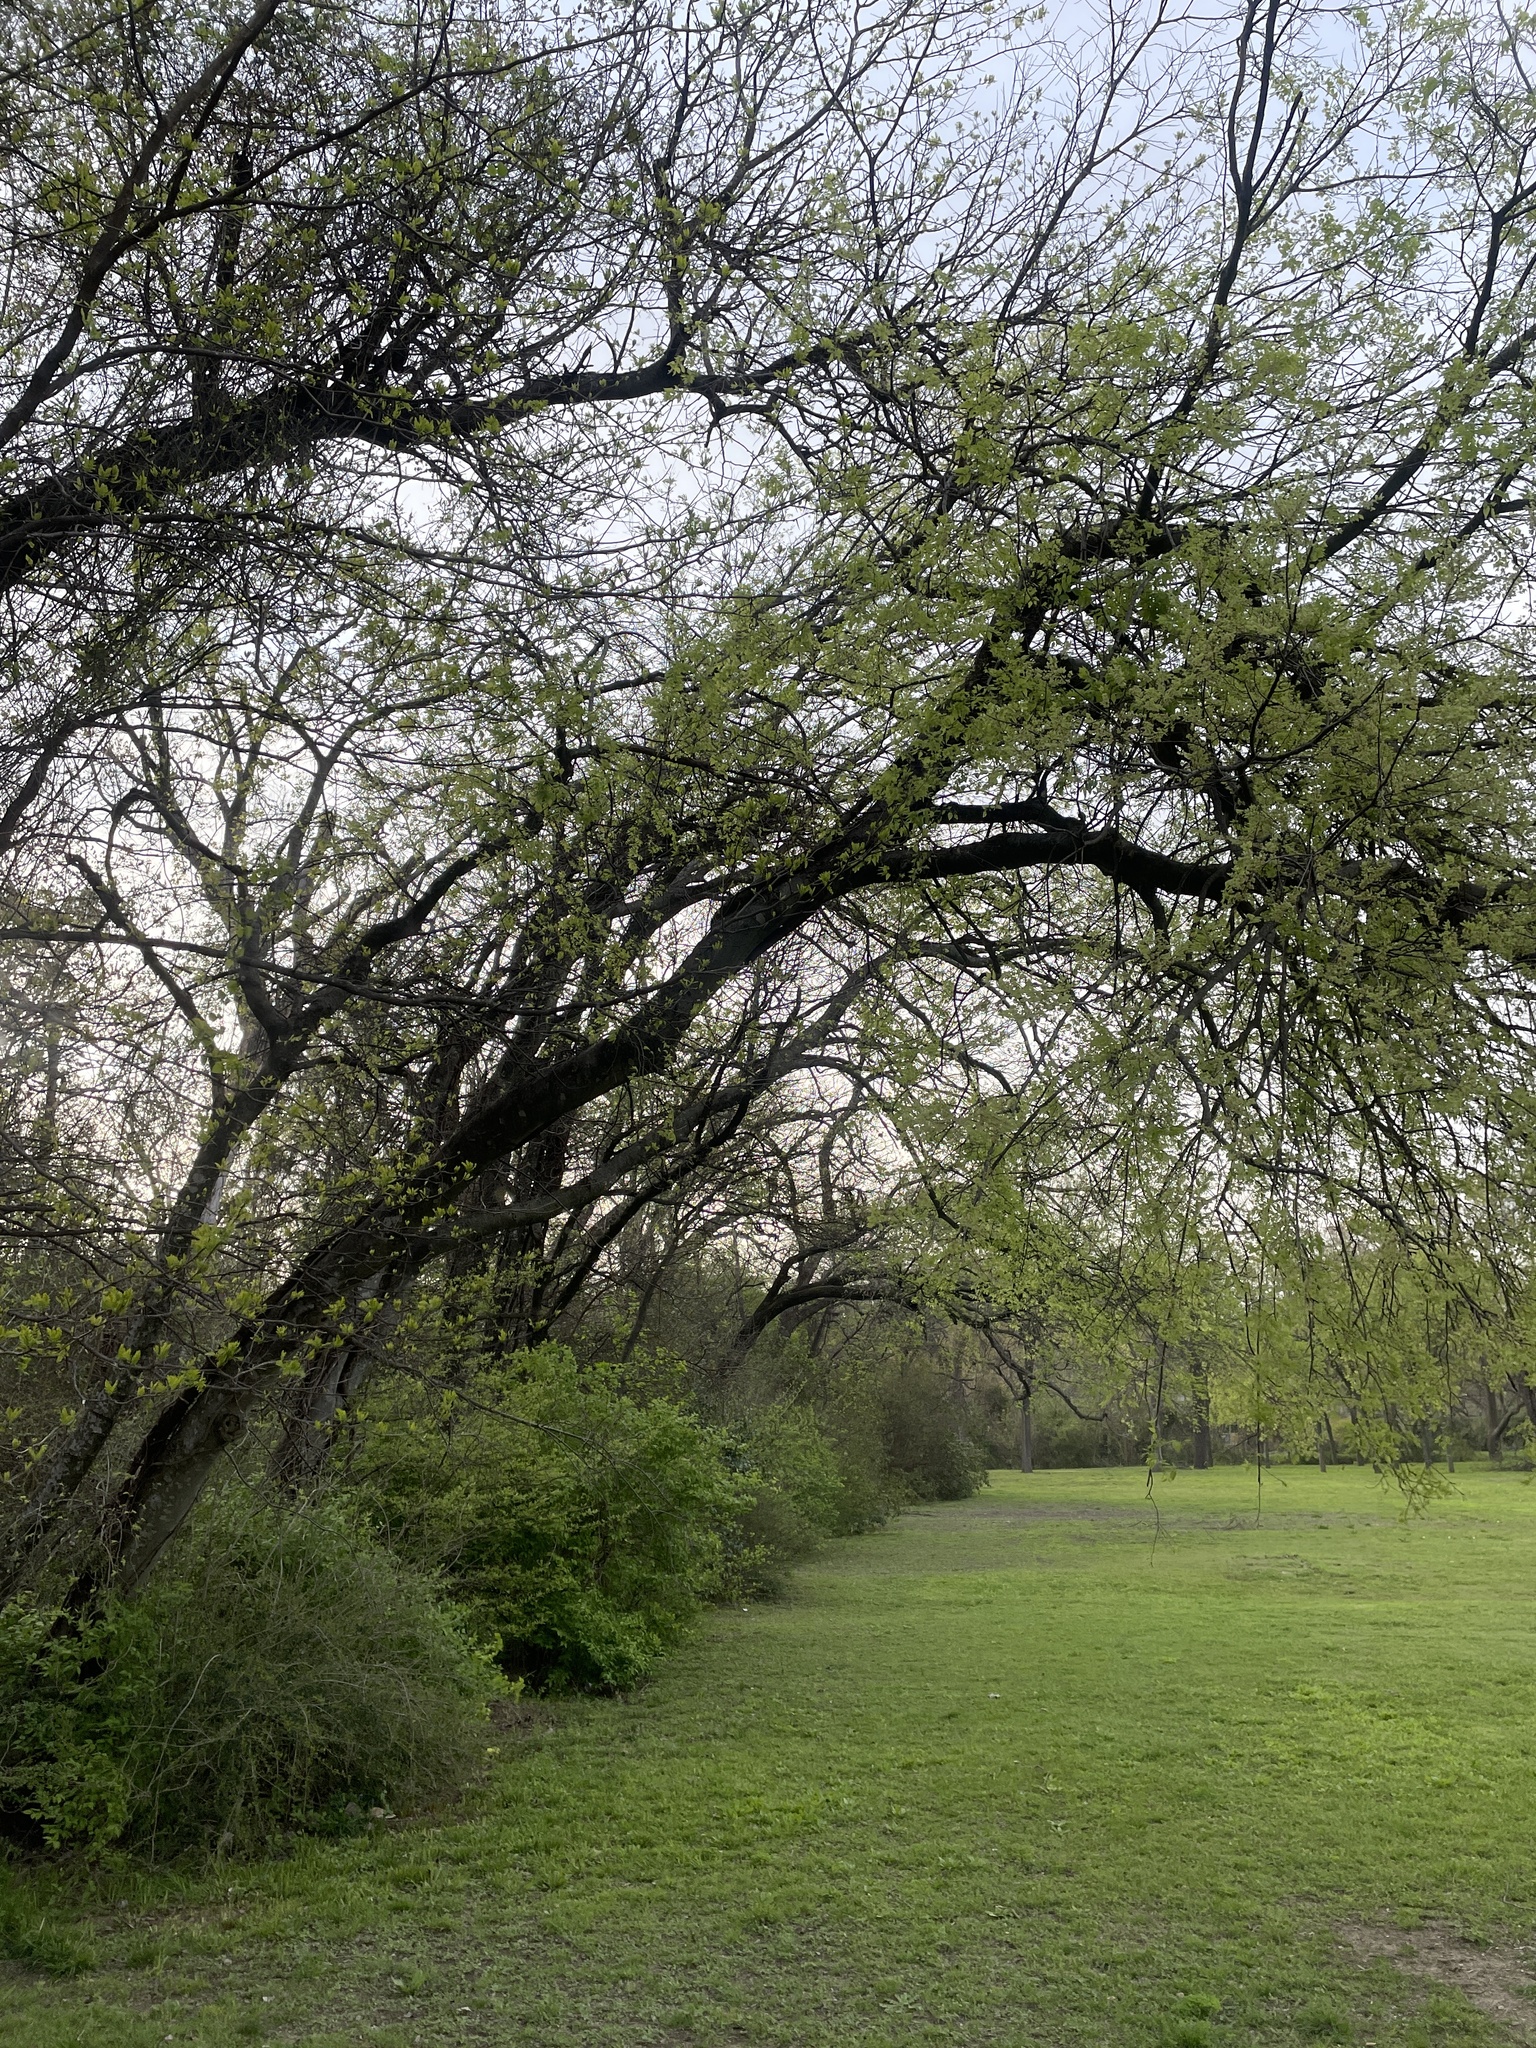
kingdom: Plantae
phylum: Tracheophyta
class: Magnoliopsida
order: Rosales
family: Cannabaceae
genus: Celtis
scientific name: Celtis laevigata
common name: Sugarberry
